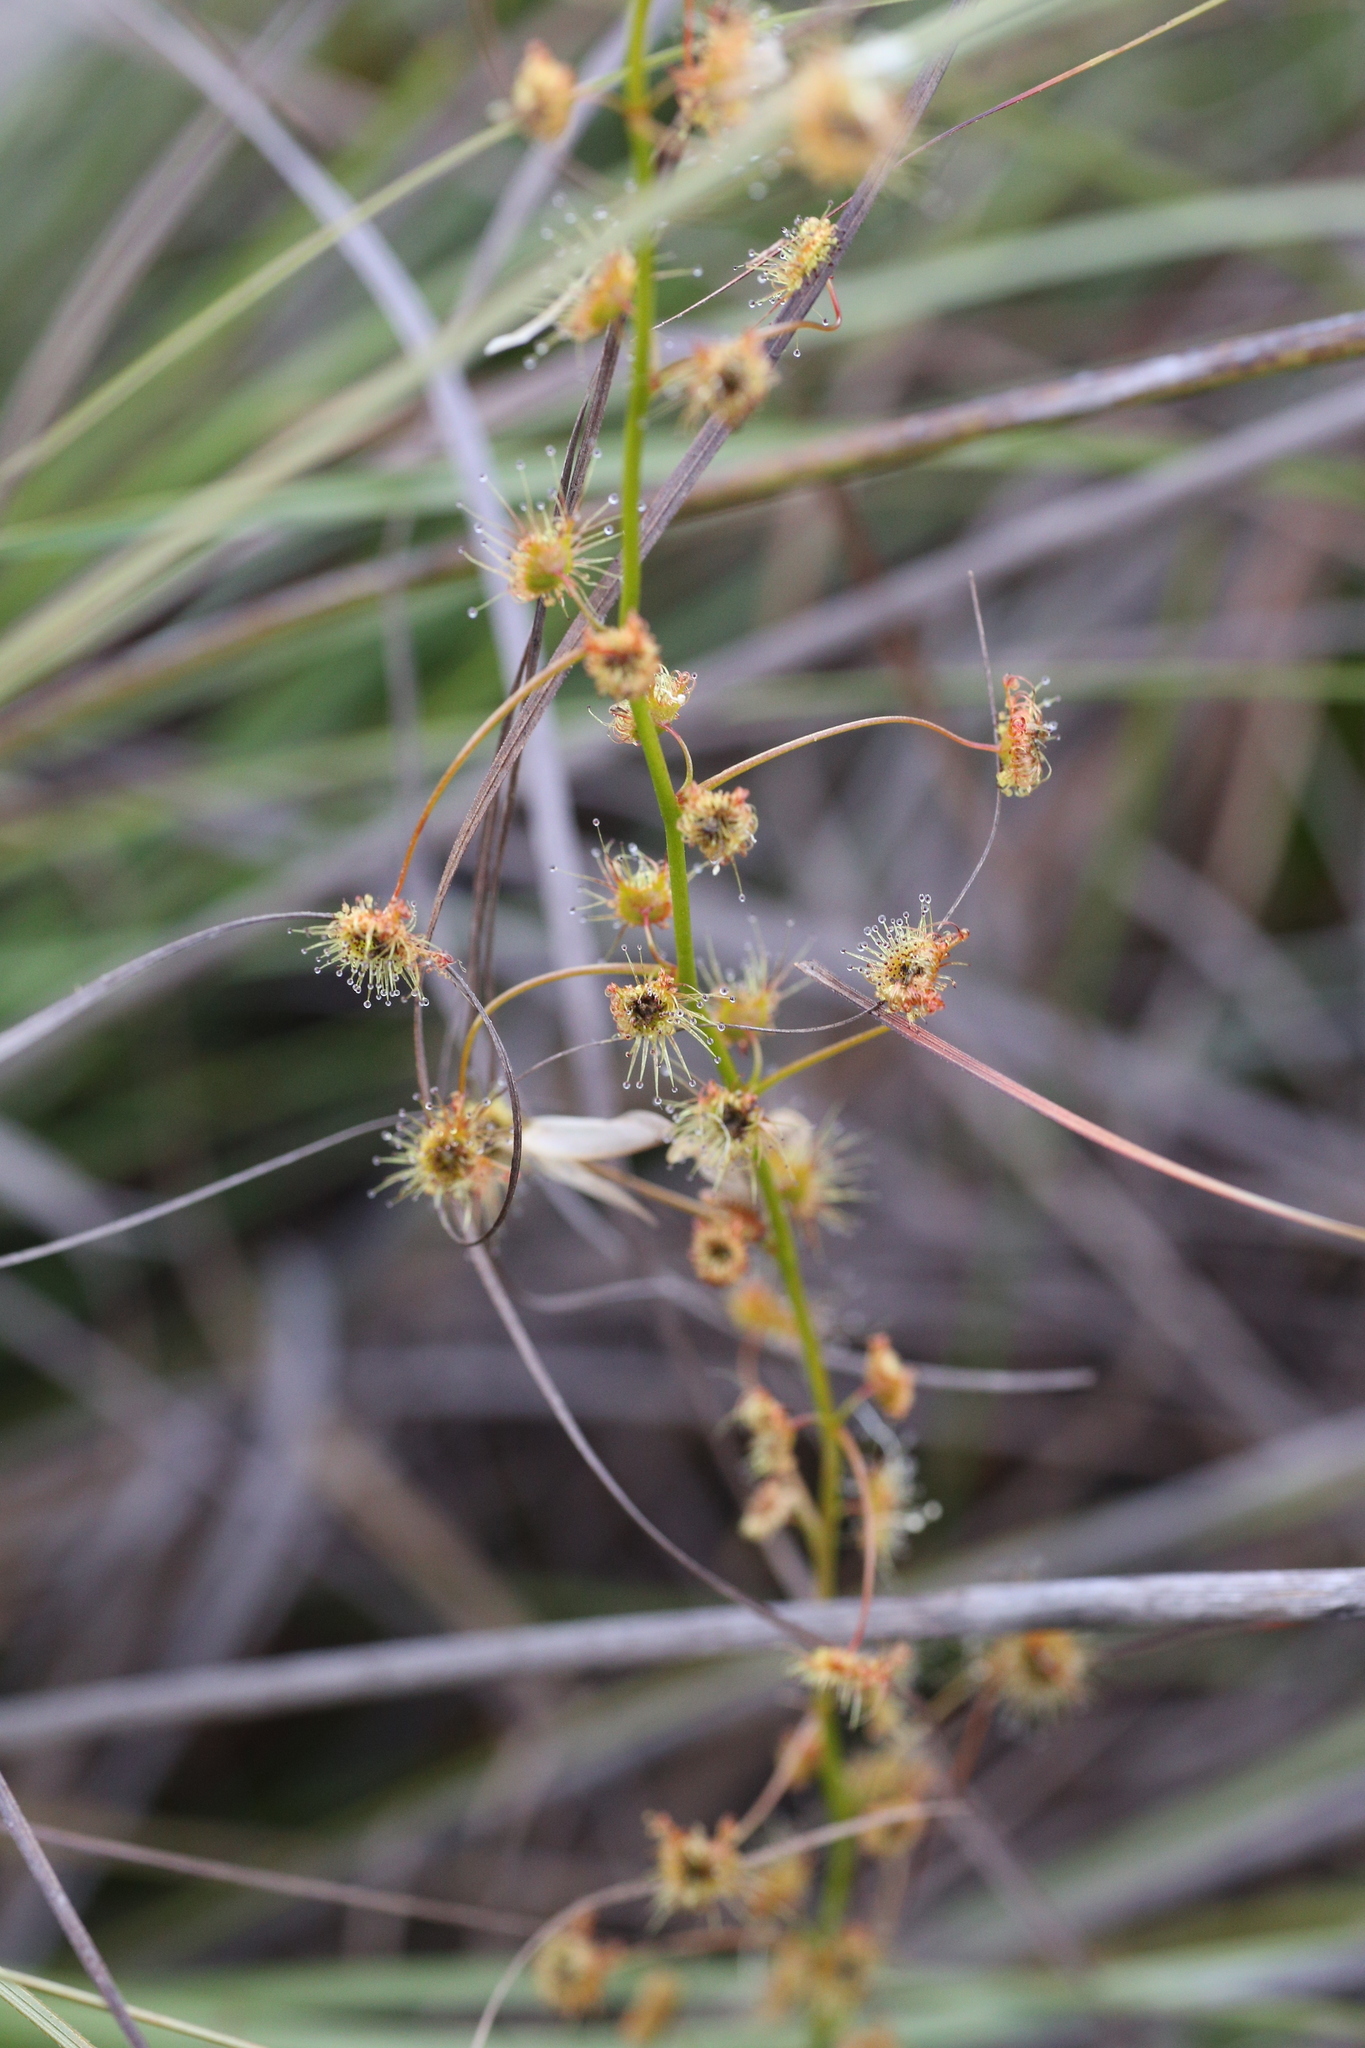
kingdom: Plantae
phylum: Tracheophyta
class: Magnoliopsida
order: Caryophyllales
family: Droseraceae
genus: Drosera
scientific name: Drosera sulphurea
